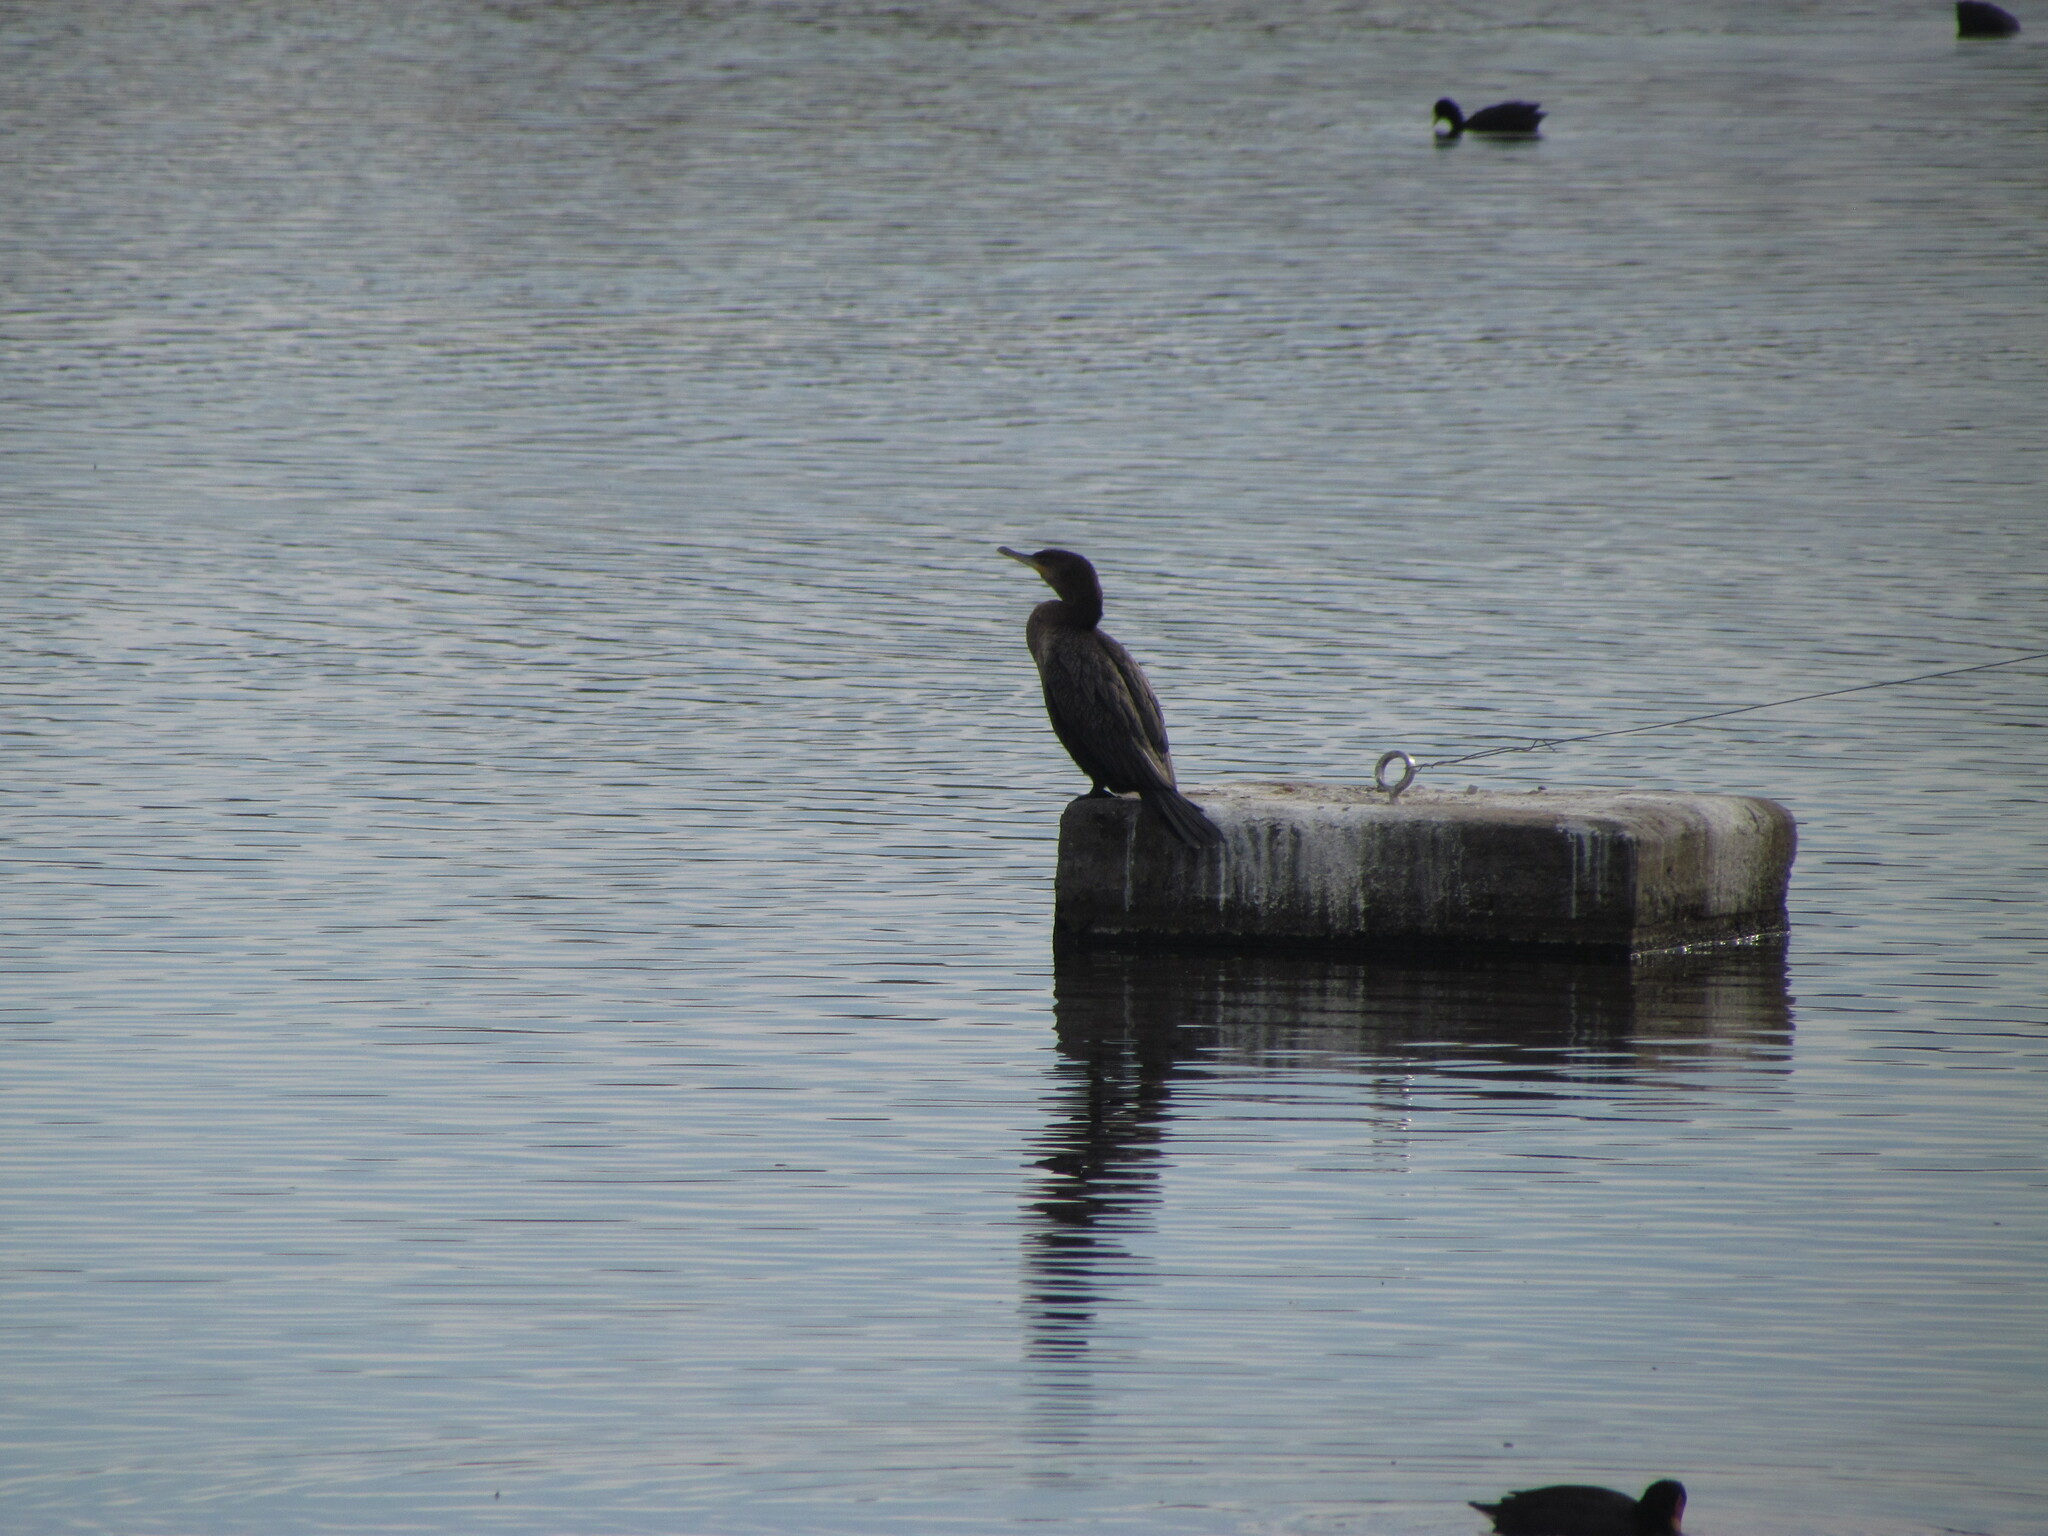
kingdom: Animalia
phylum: Chordata
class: Aves
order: Suliformes
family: Phalacrocoracidae
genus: Phalacrocorax
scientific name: Phalacrocorax brasilianus
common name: Neotropic cormorant
